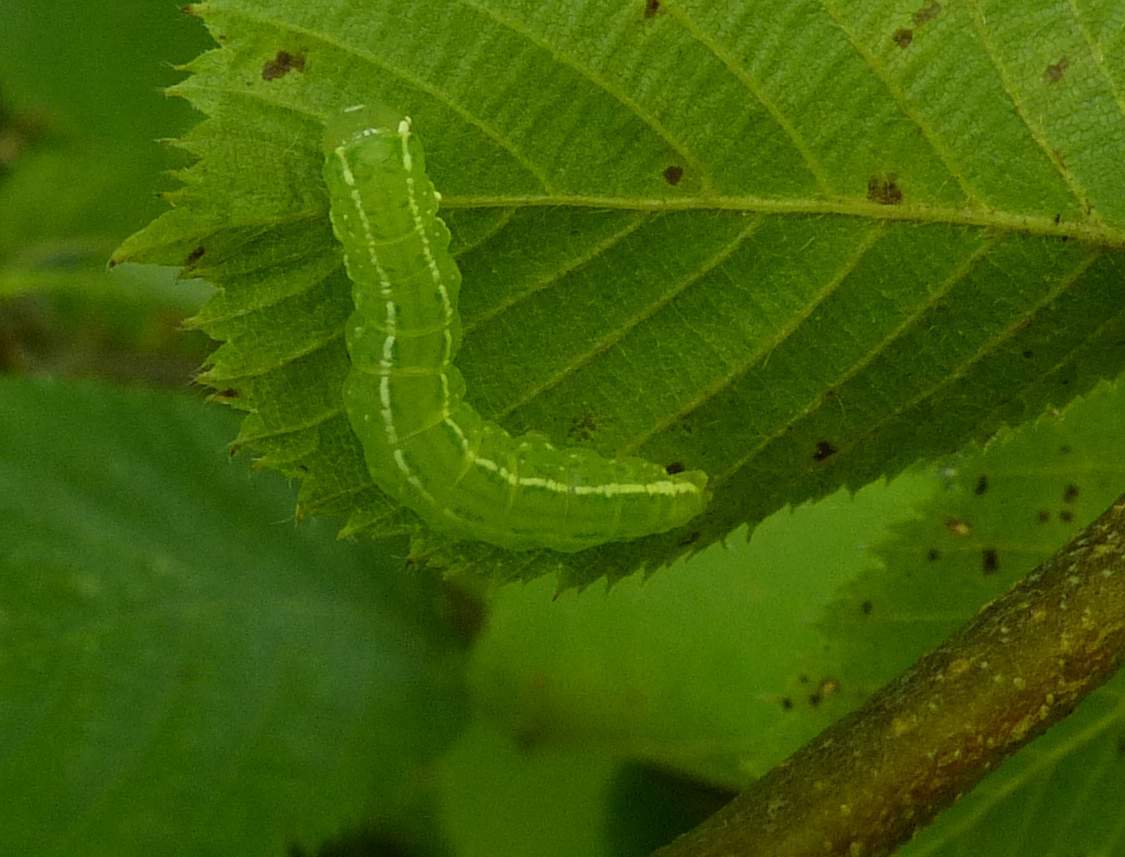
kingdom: Animalia
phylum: Arthropoda
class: Insecta
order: Lepidoptera
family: Nolidae
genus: Baileya
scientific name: Baileya dormitans
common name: Sleeping baileya moth
